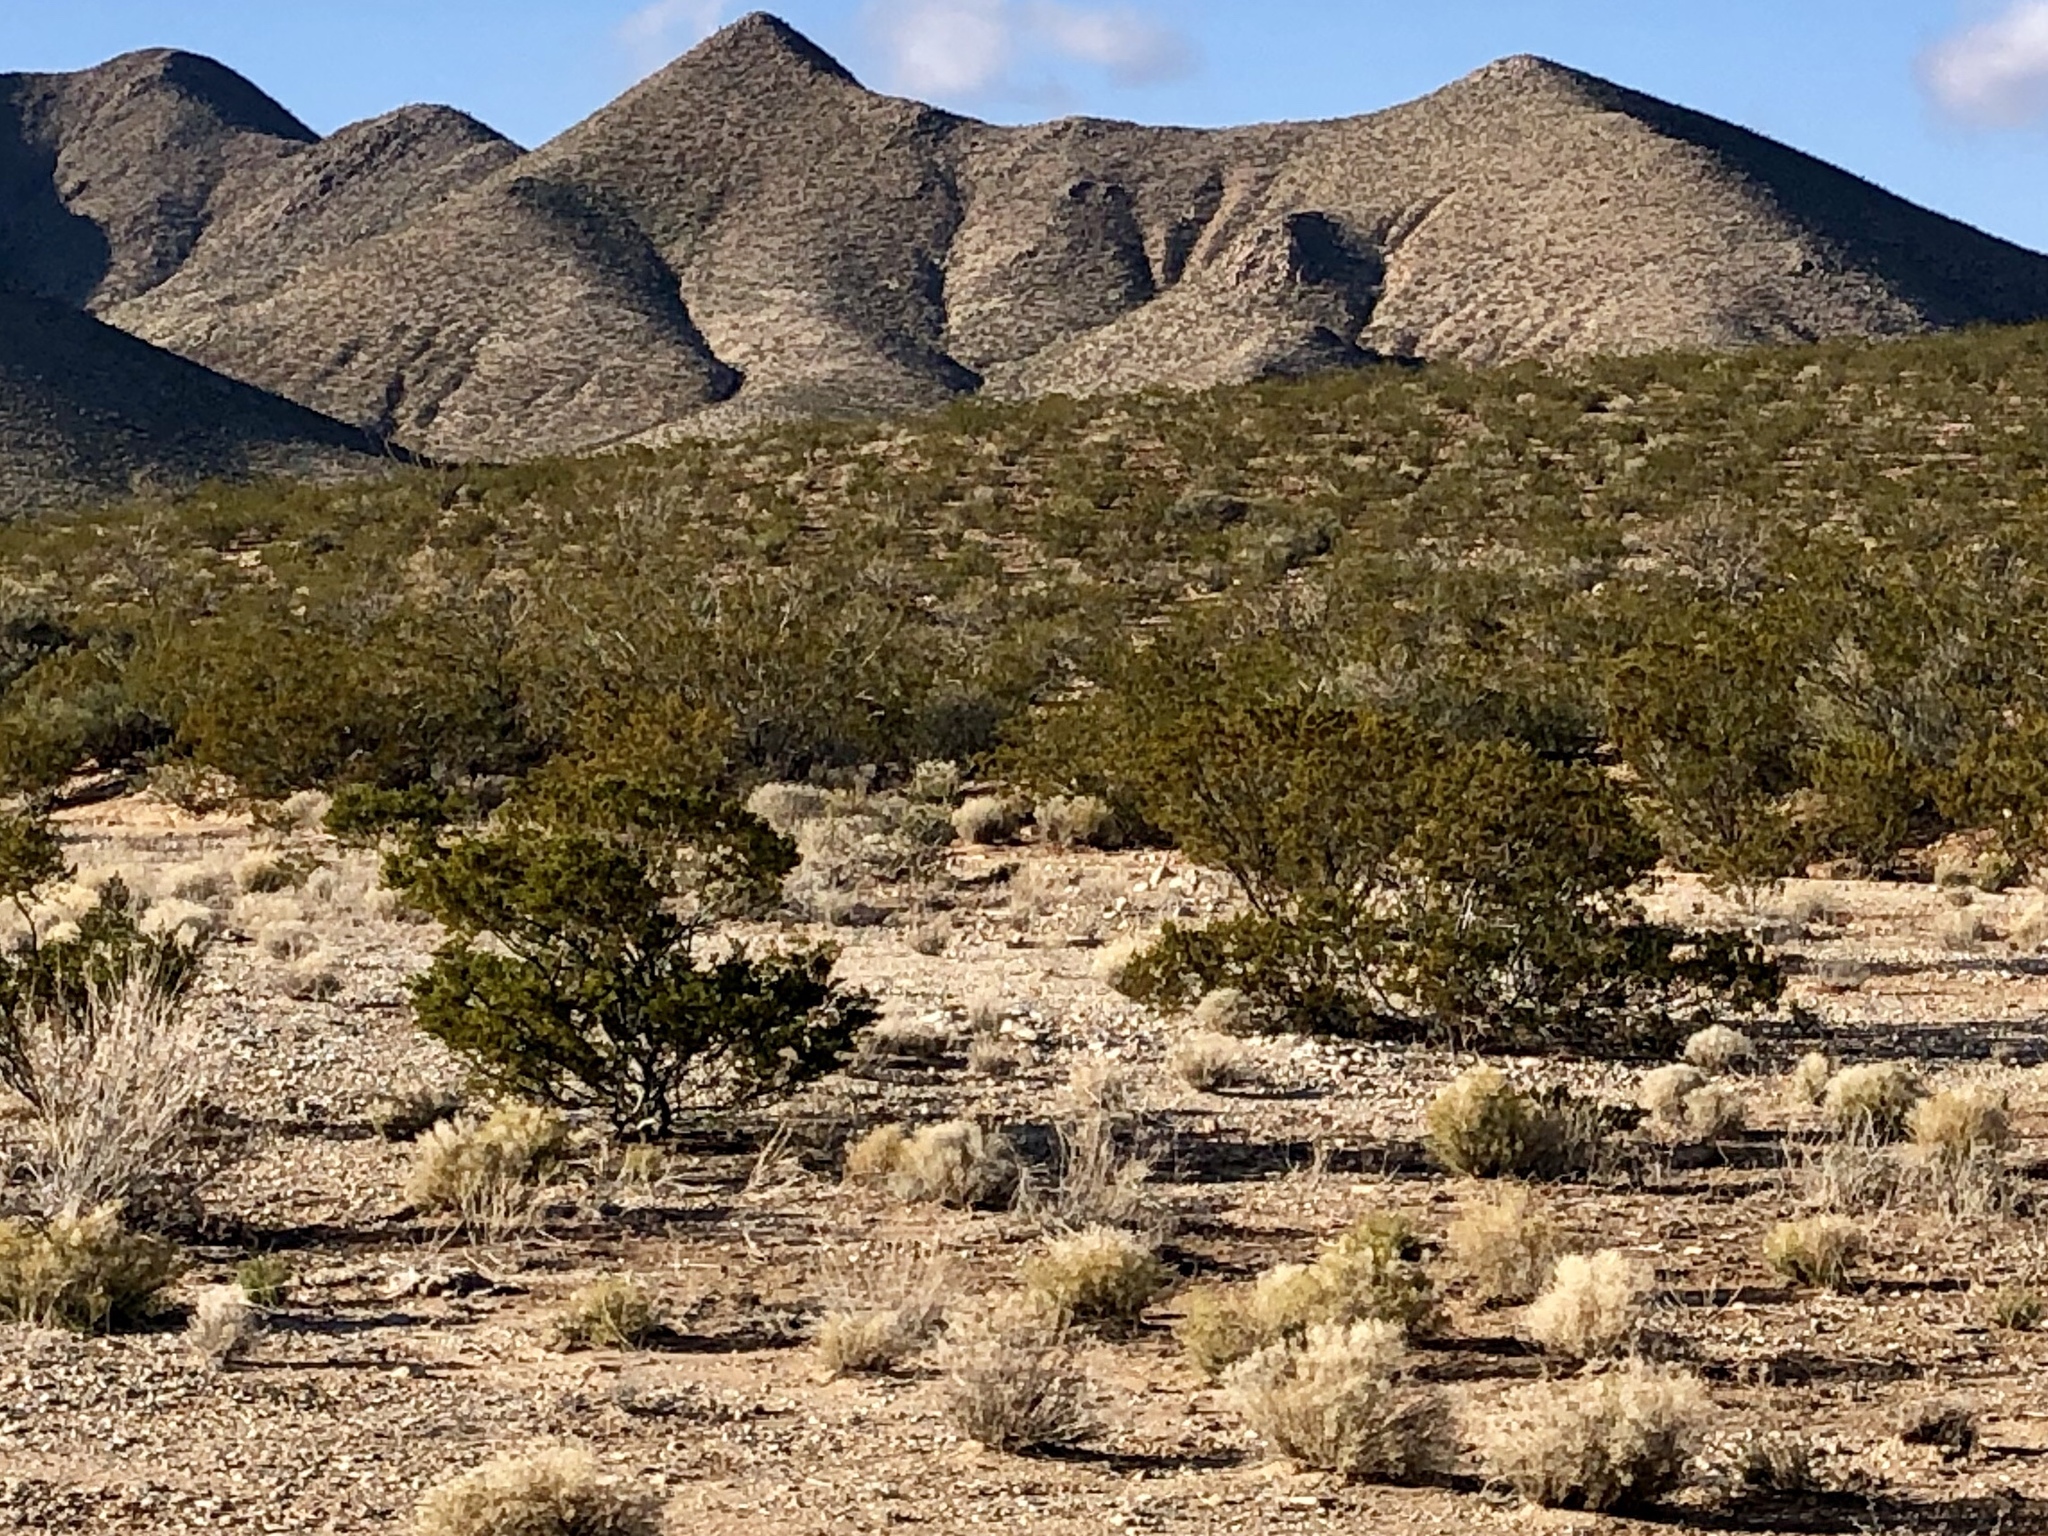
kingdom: Plantae
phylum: Tracheophyta
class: Magnoliopsida
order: Zygophyllales
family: Zygophyllaceae
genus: Larrea
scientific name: Larrea tridentata
